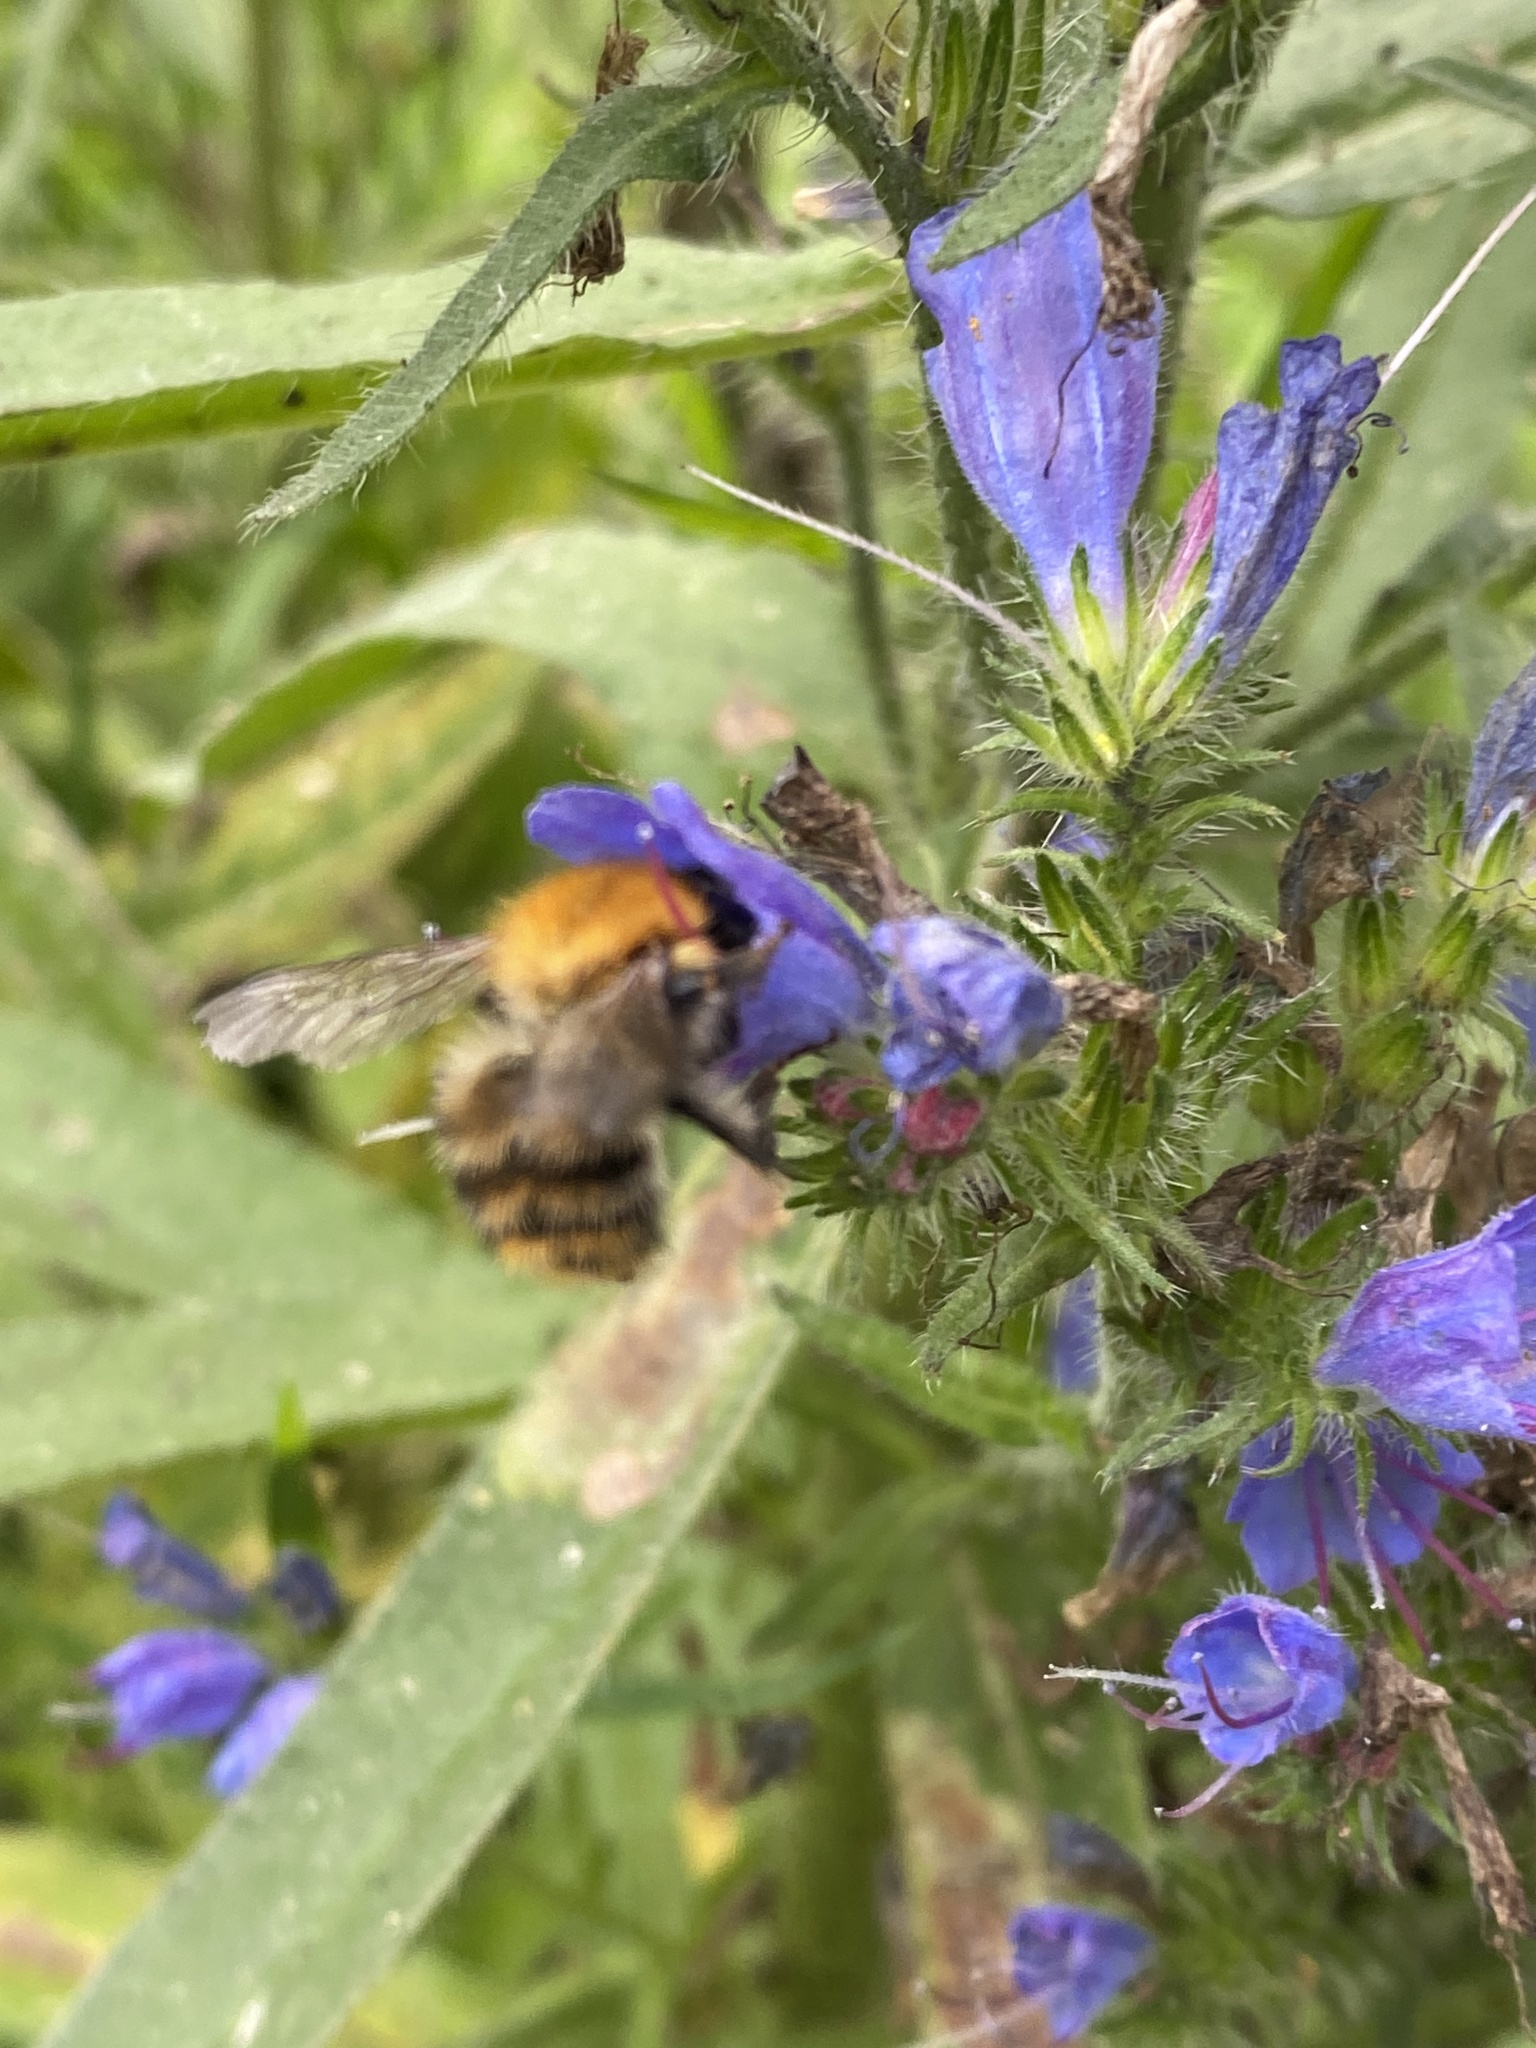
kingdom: Animalia
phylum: Arthropoda
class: Insecta
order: Hymenoptera
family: Apidae
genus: Bombus
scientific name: Bombus pascuorum
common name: Common carder bee
